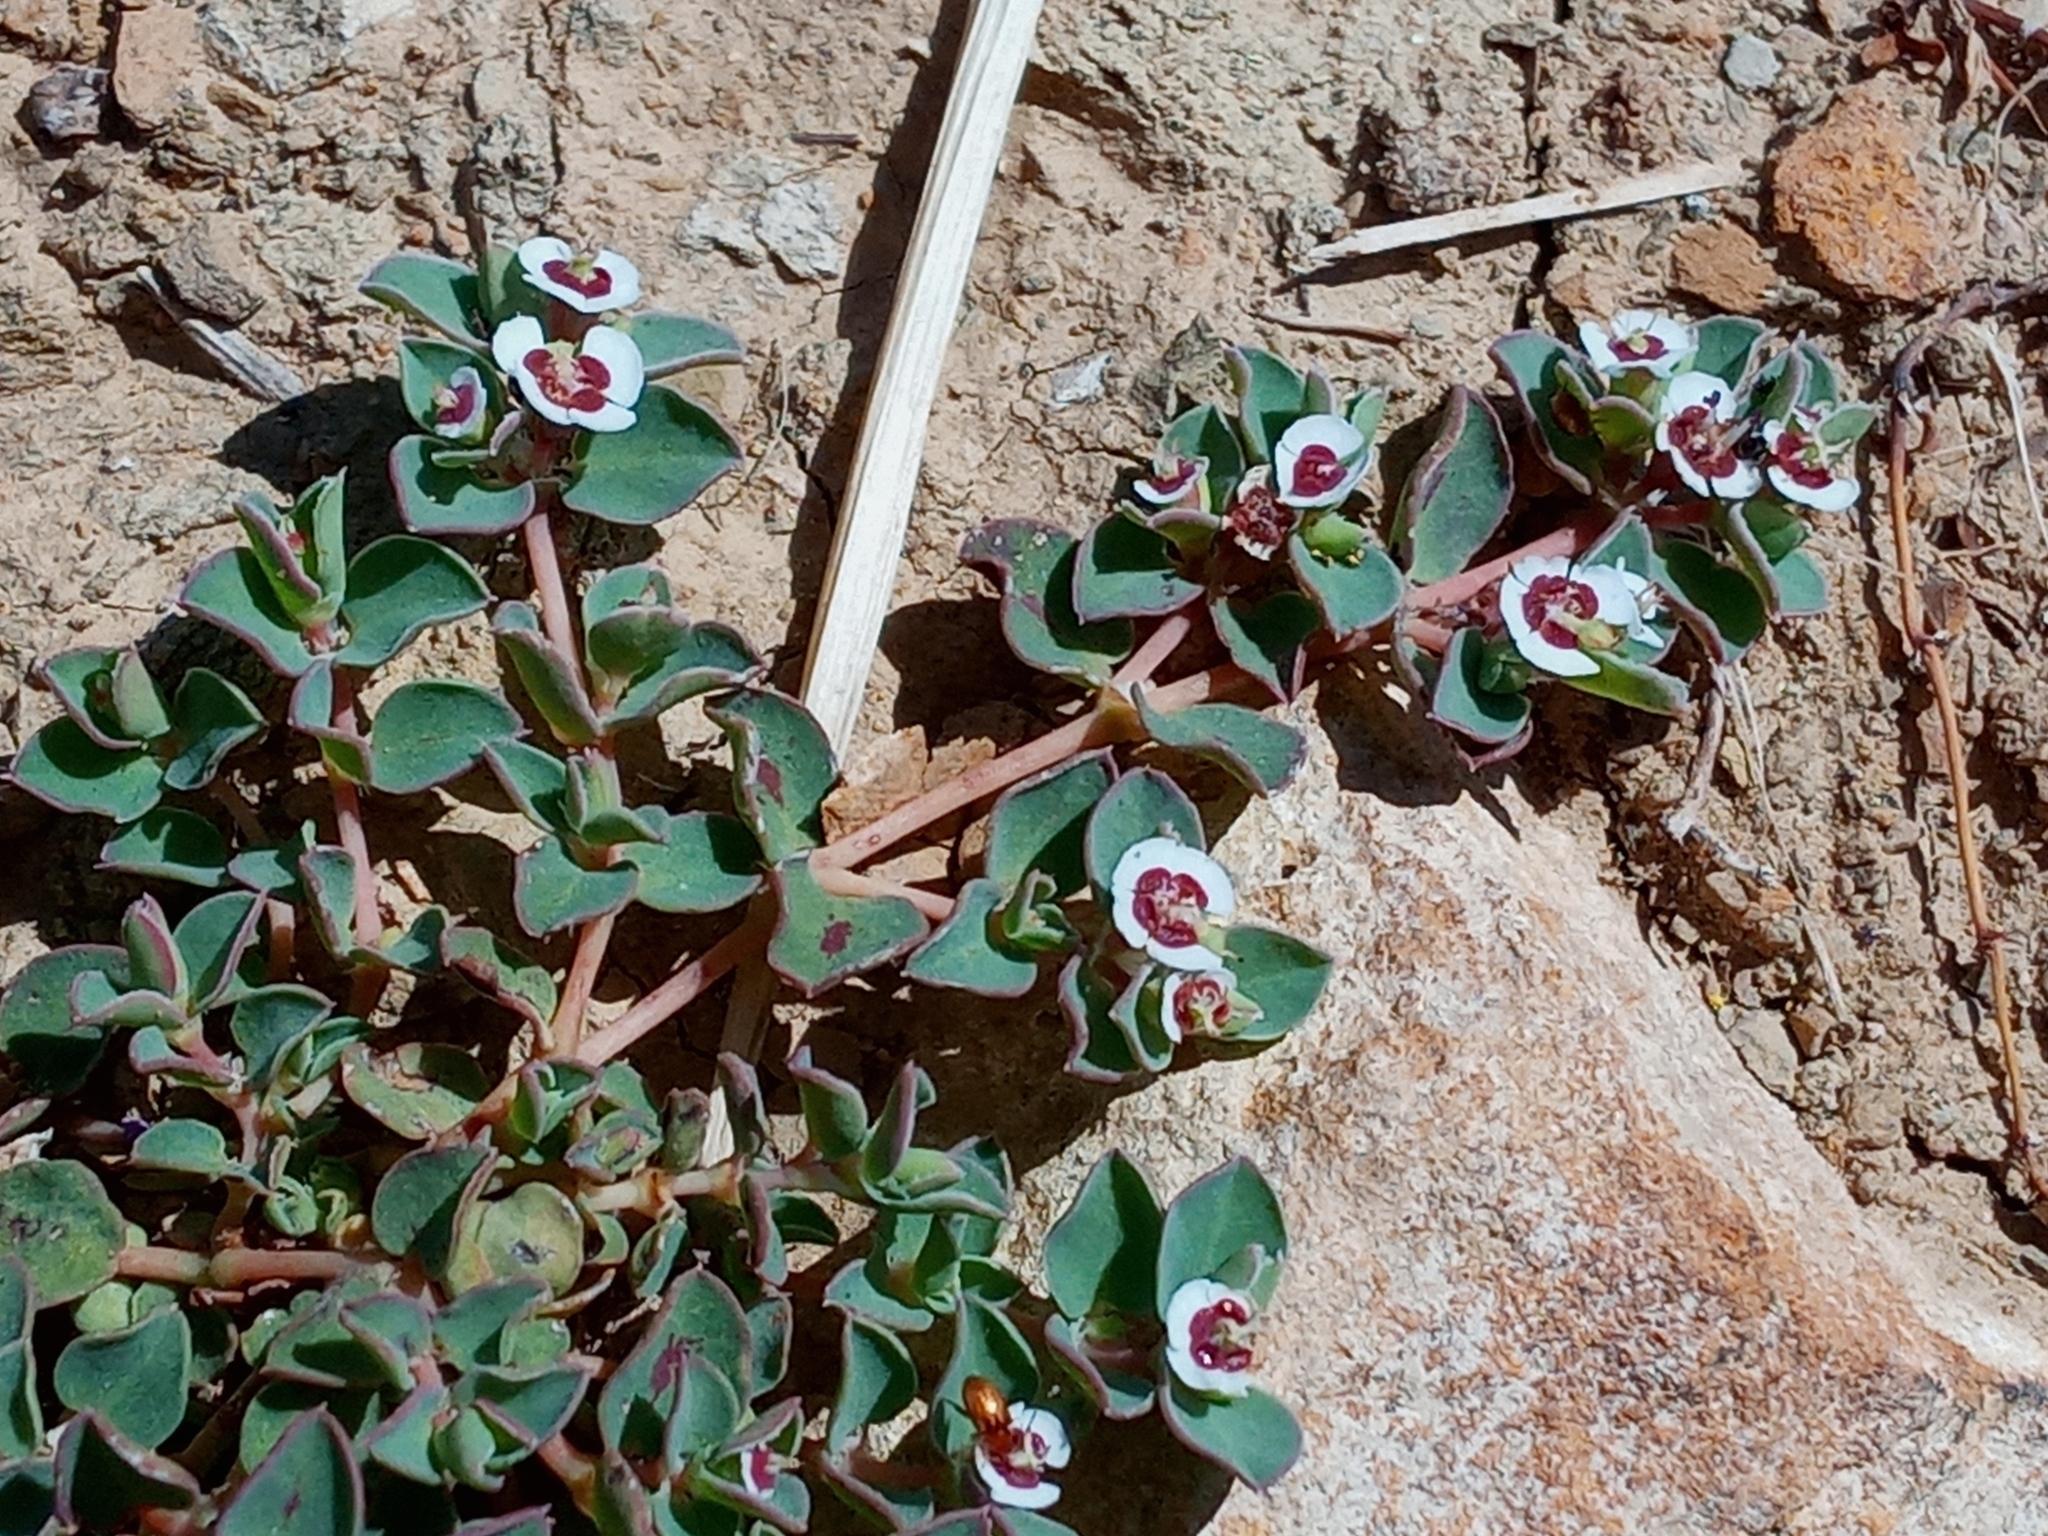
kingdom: Plantae
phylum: Tracheophyta
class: Magnoliopsida
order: Malpighiales
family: Euphorbiaceae
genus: Euphorbia
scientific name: Euphorbia albomarginata
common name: Whitemargin sandmat
